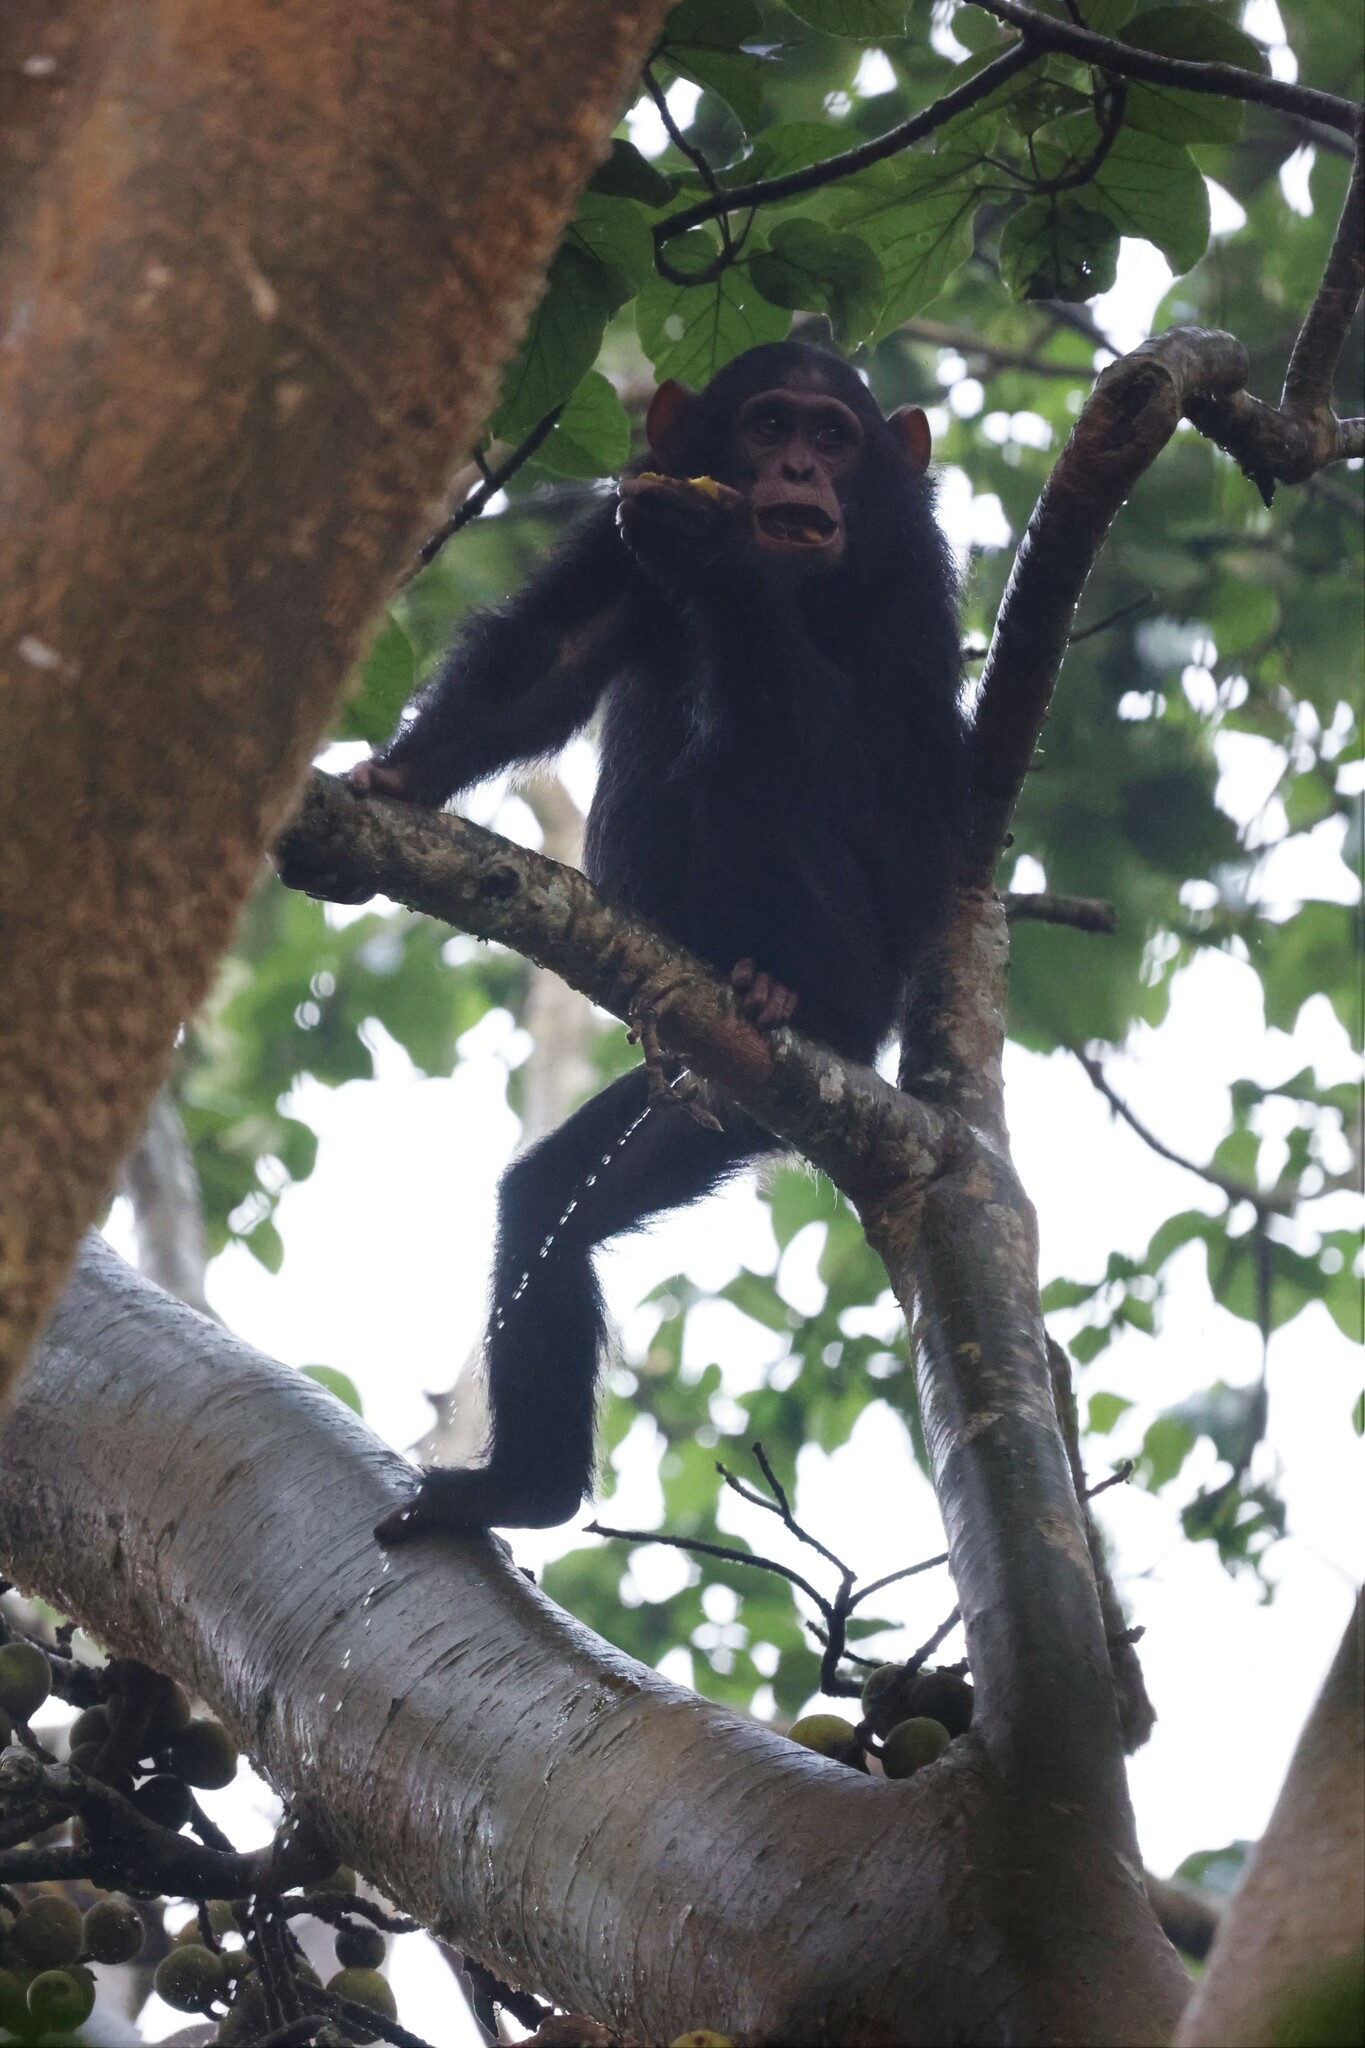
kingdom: Animalia
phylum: Chordata
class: Mammalia
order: Primates
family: Hominidae
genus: Pan
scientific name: Pan troglodytes
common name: Chimpanzee
